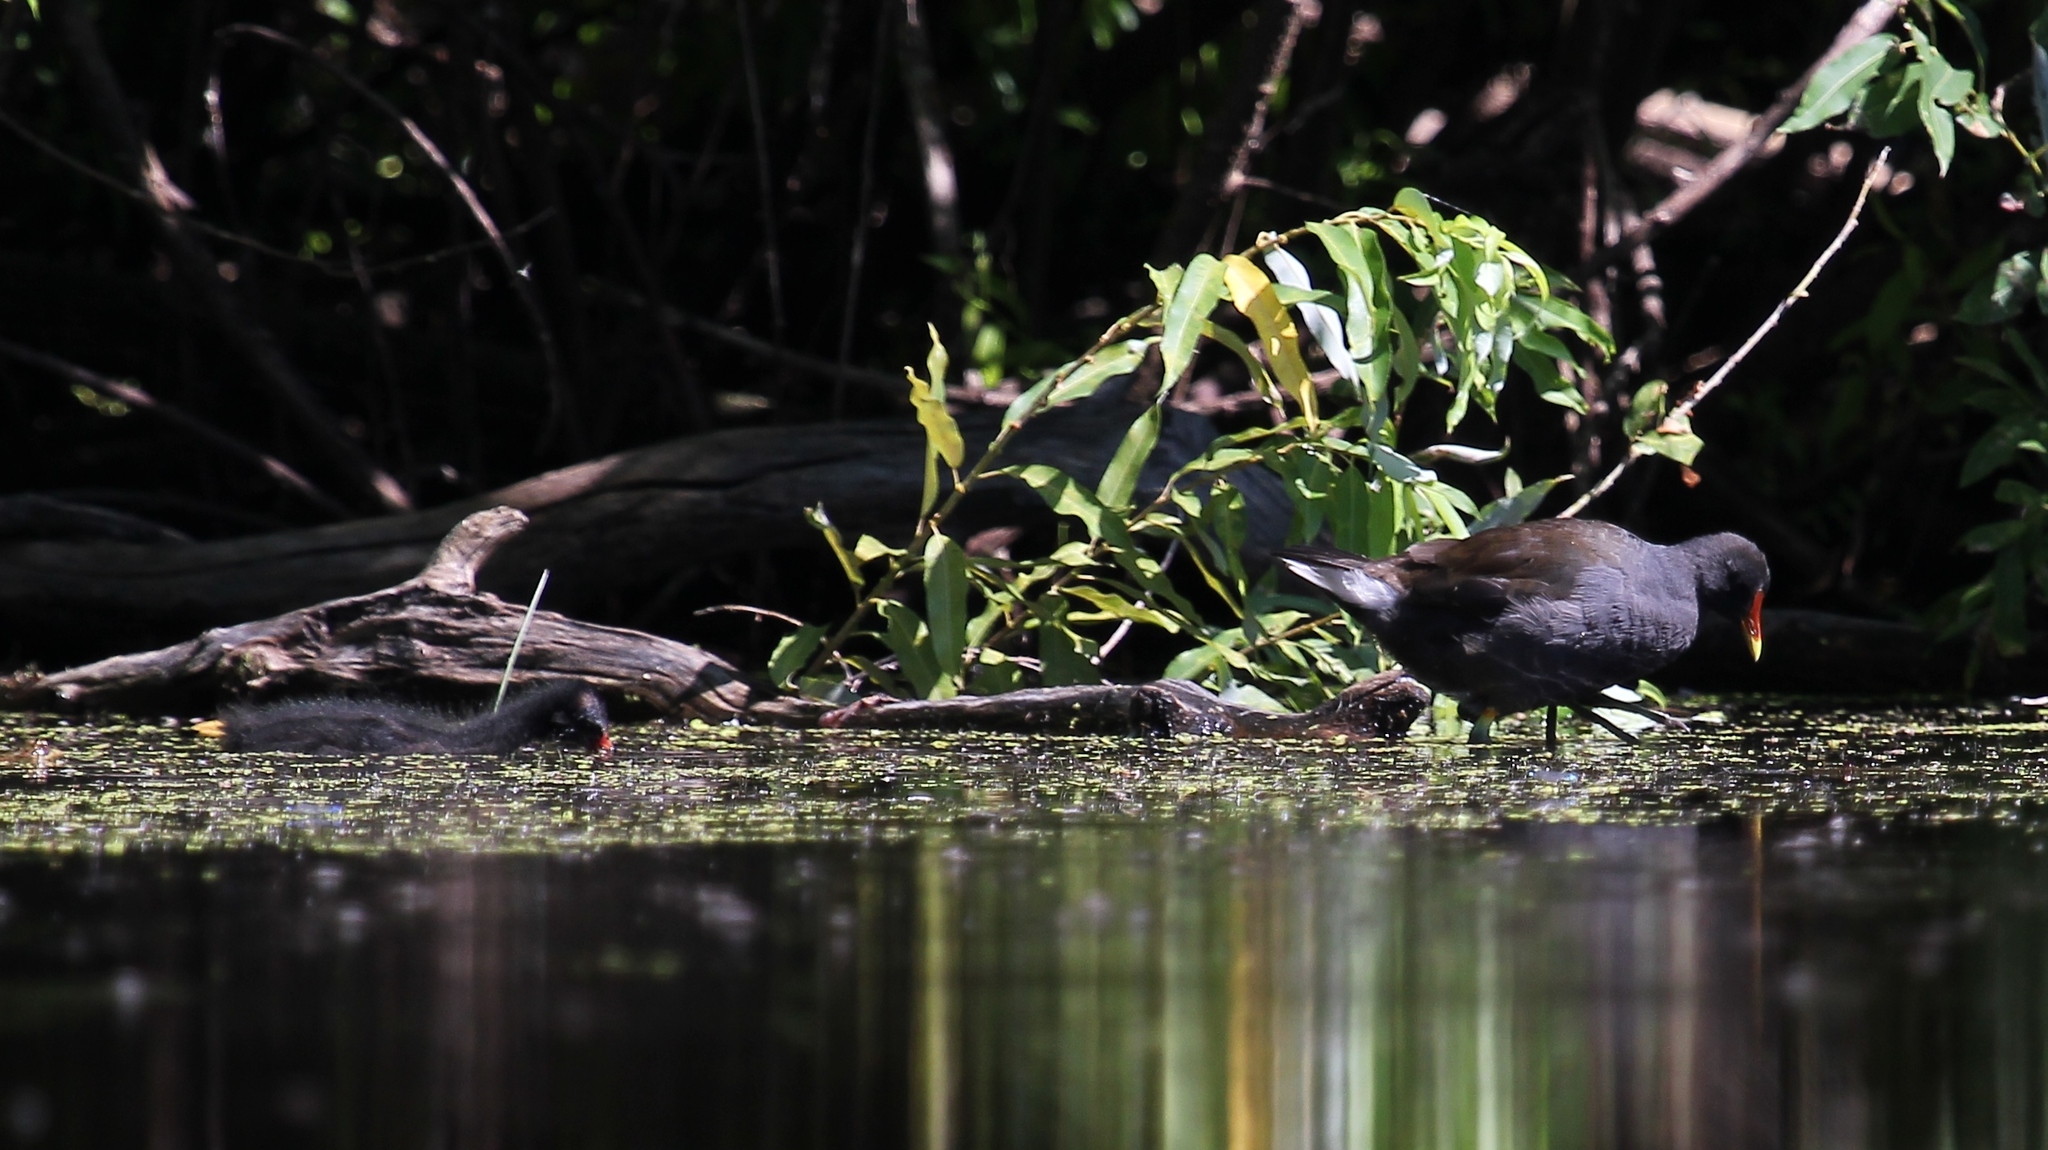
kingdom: Animalia
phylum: Chordata
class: Aves
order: Gruiformes
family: Rallidae
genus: Gallinula
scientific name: Gallinula chloropus
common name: Common moorhen
